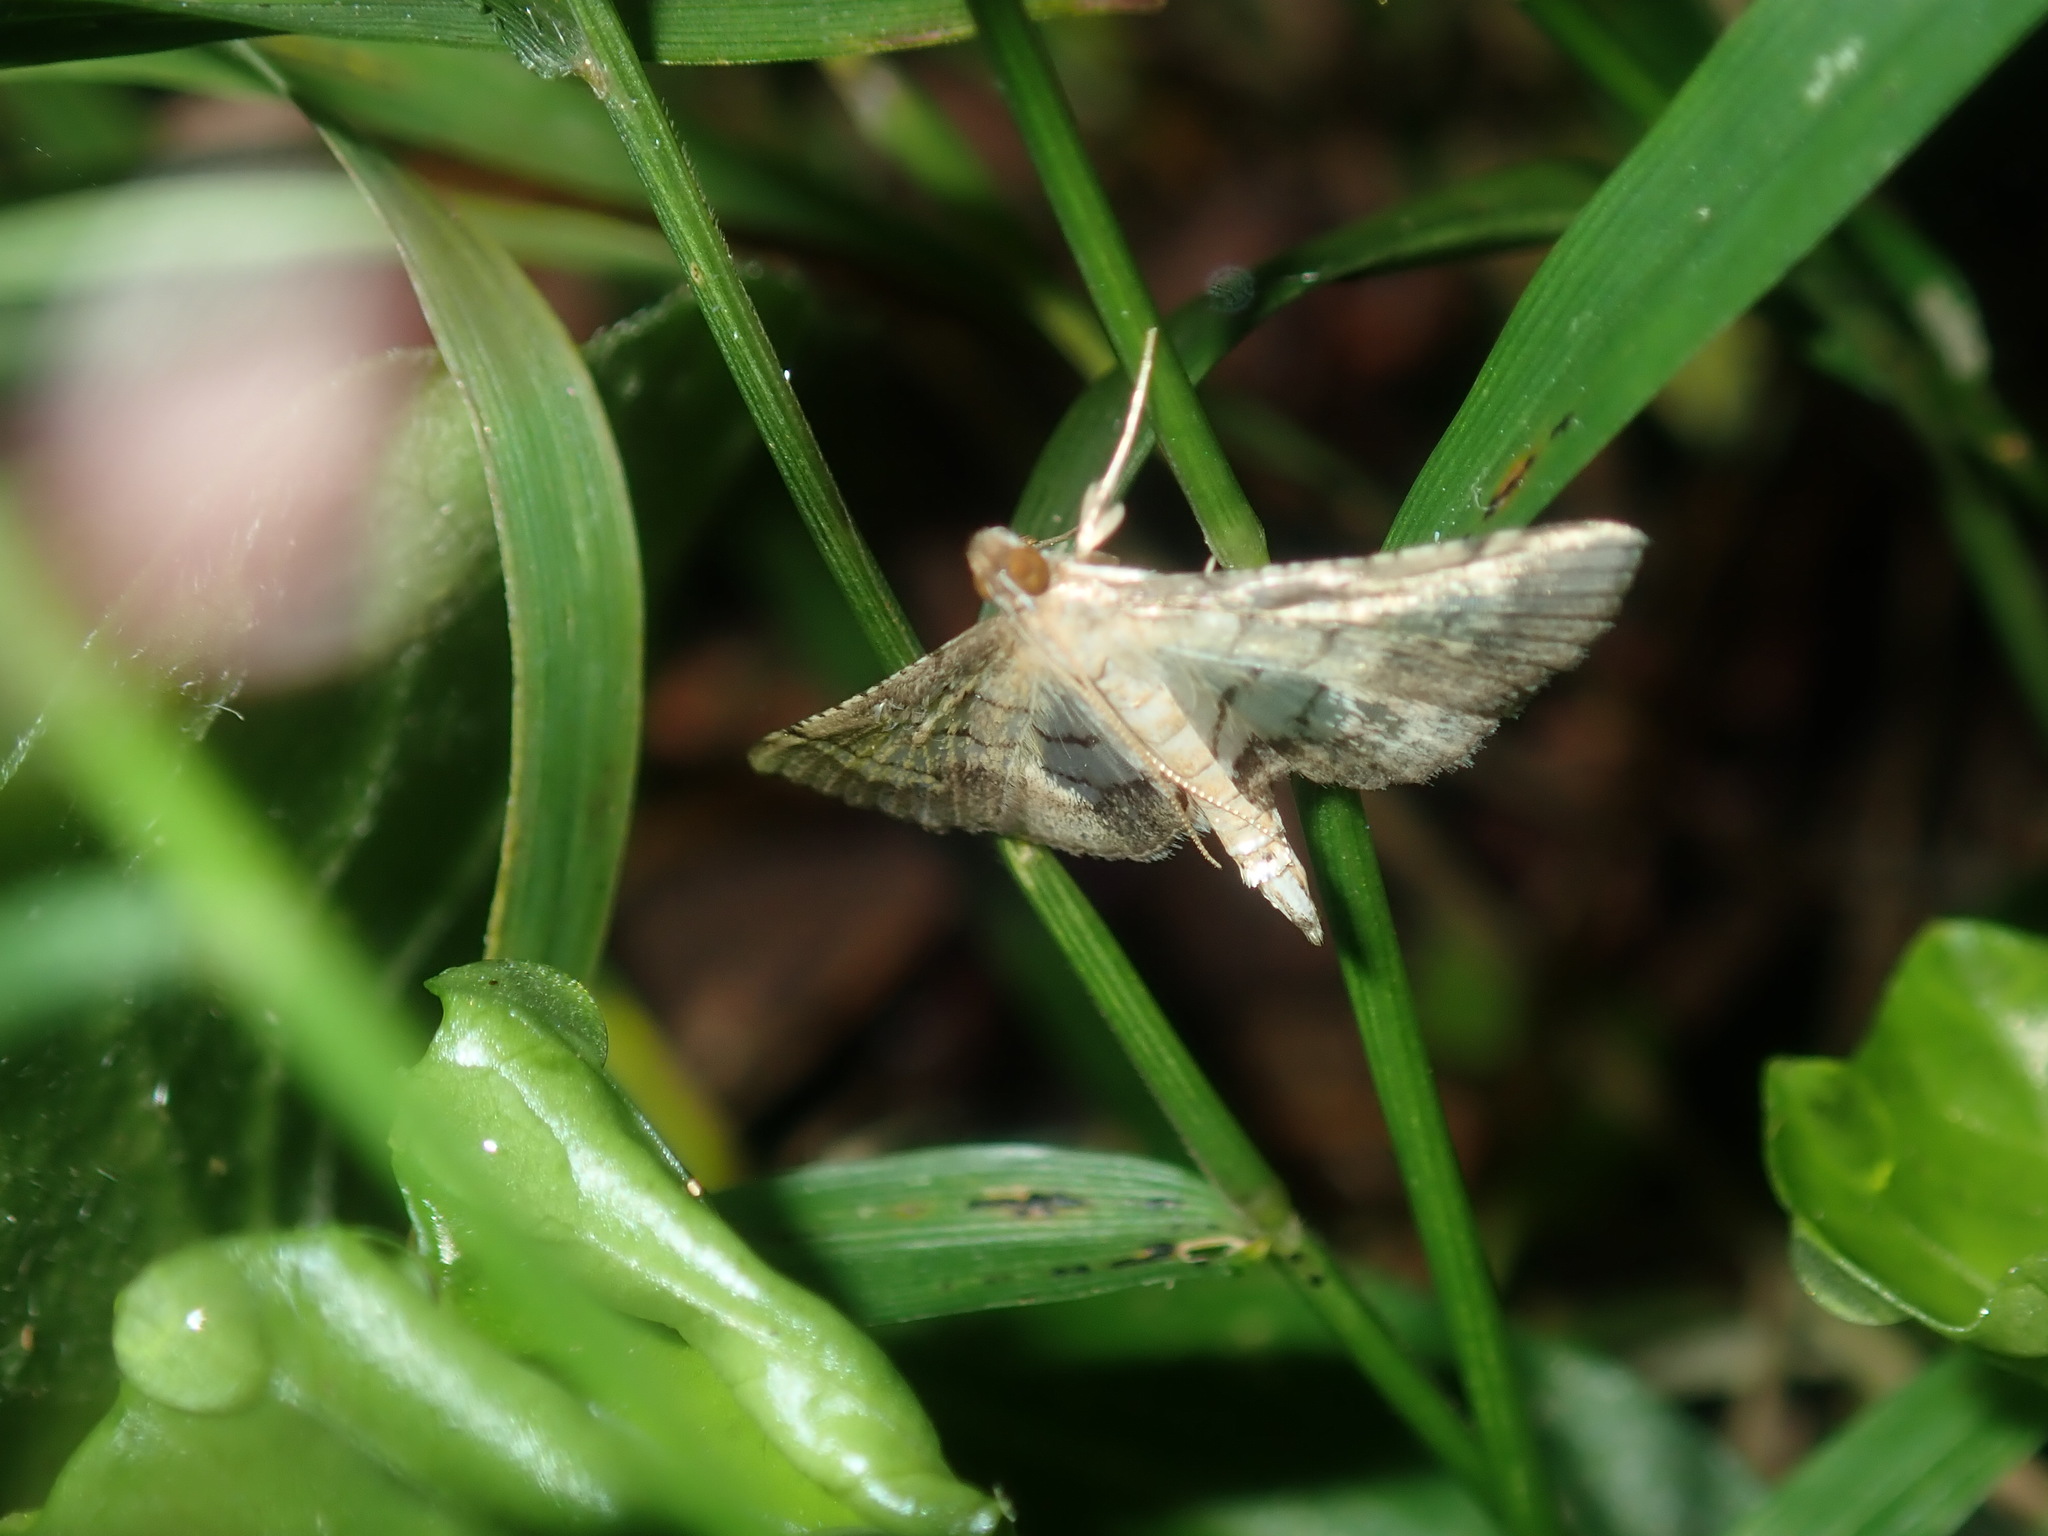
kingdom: Animalia
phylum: Arthropoda
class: Insecta
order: Lepidoptera
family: Crambidae
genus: Cnaphalocrocis
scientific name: Cnaphalocrocis poeyalis
